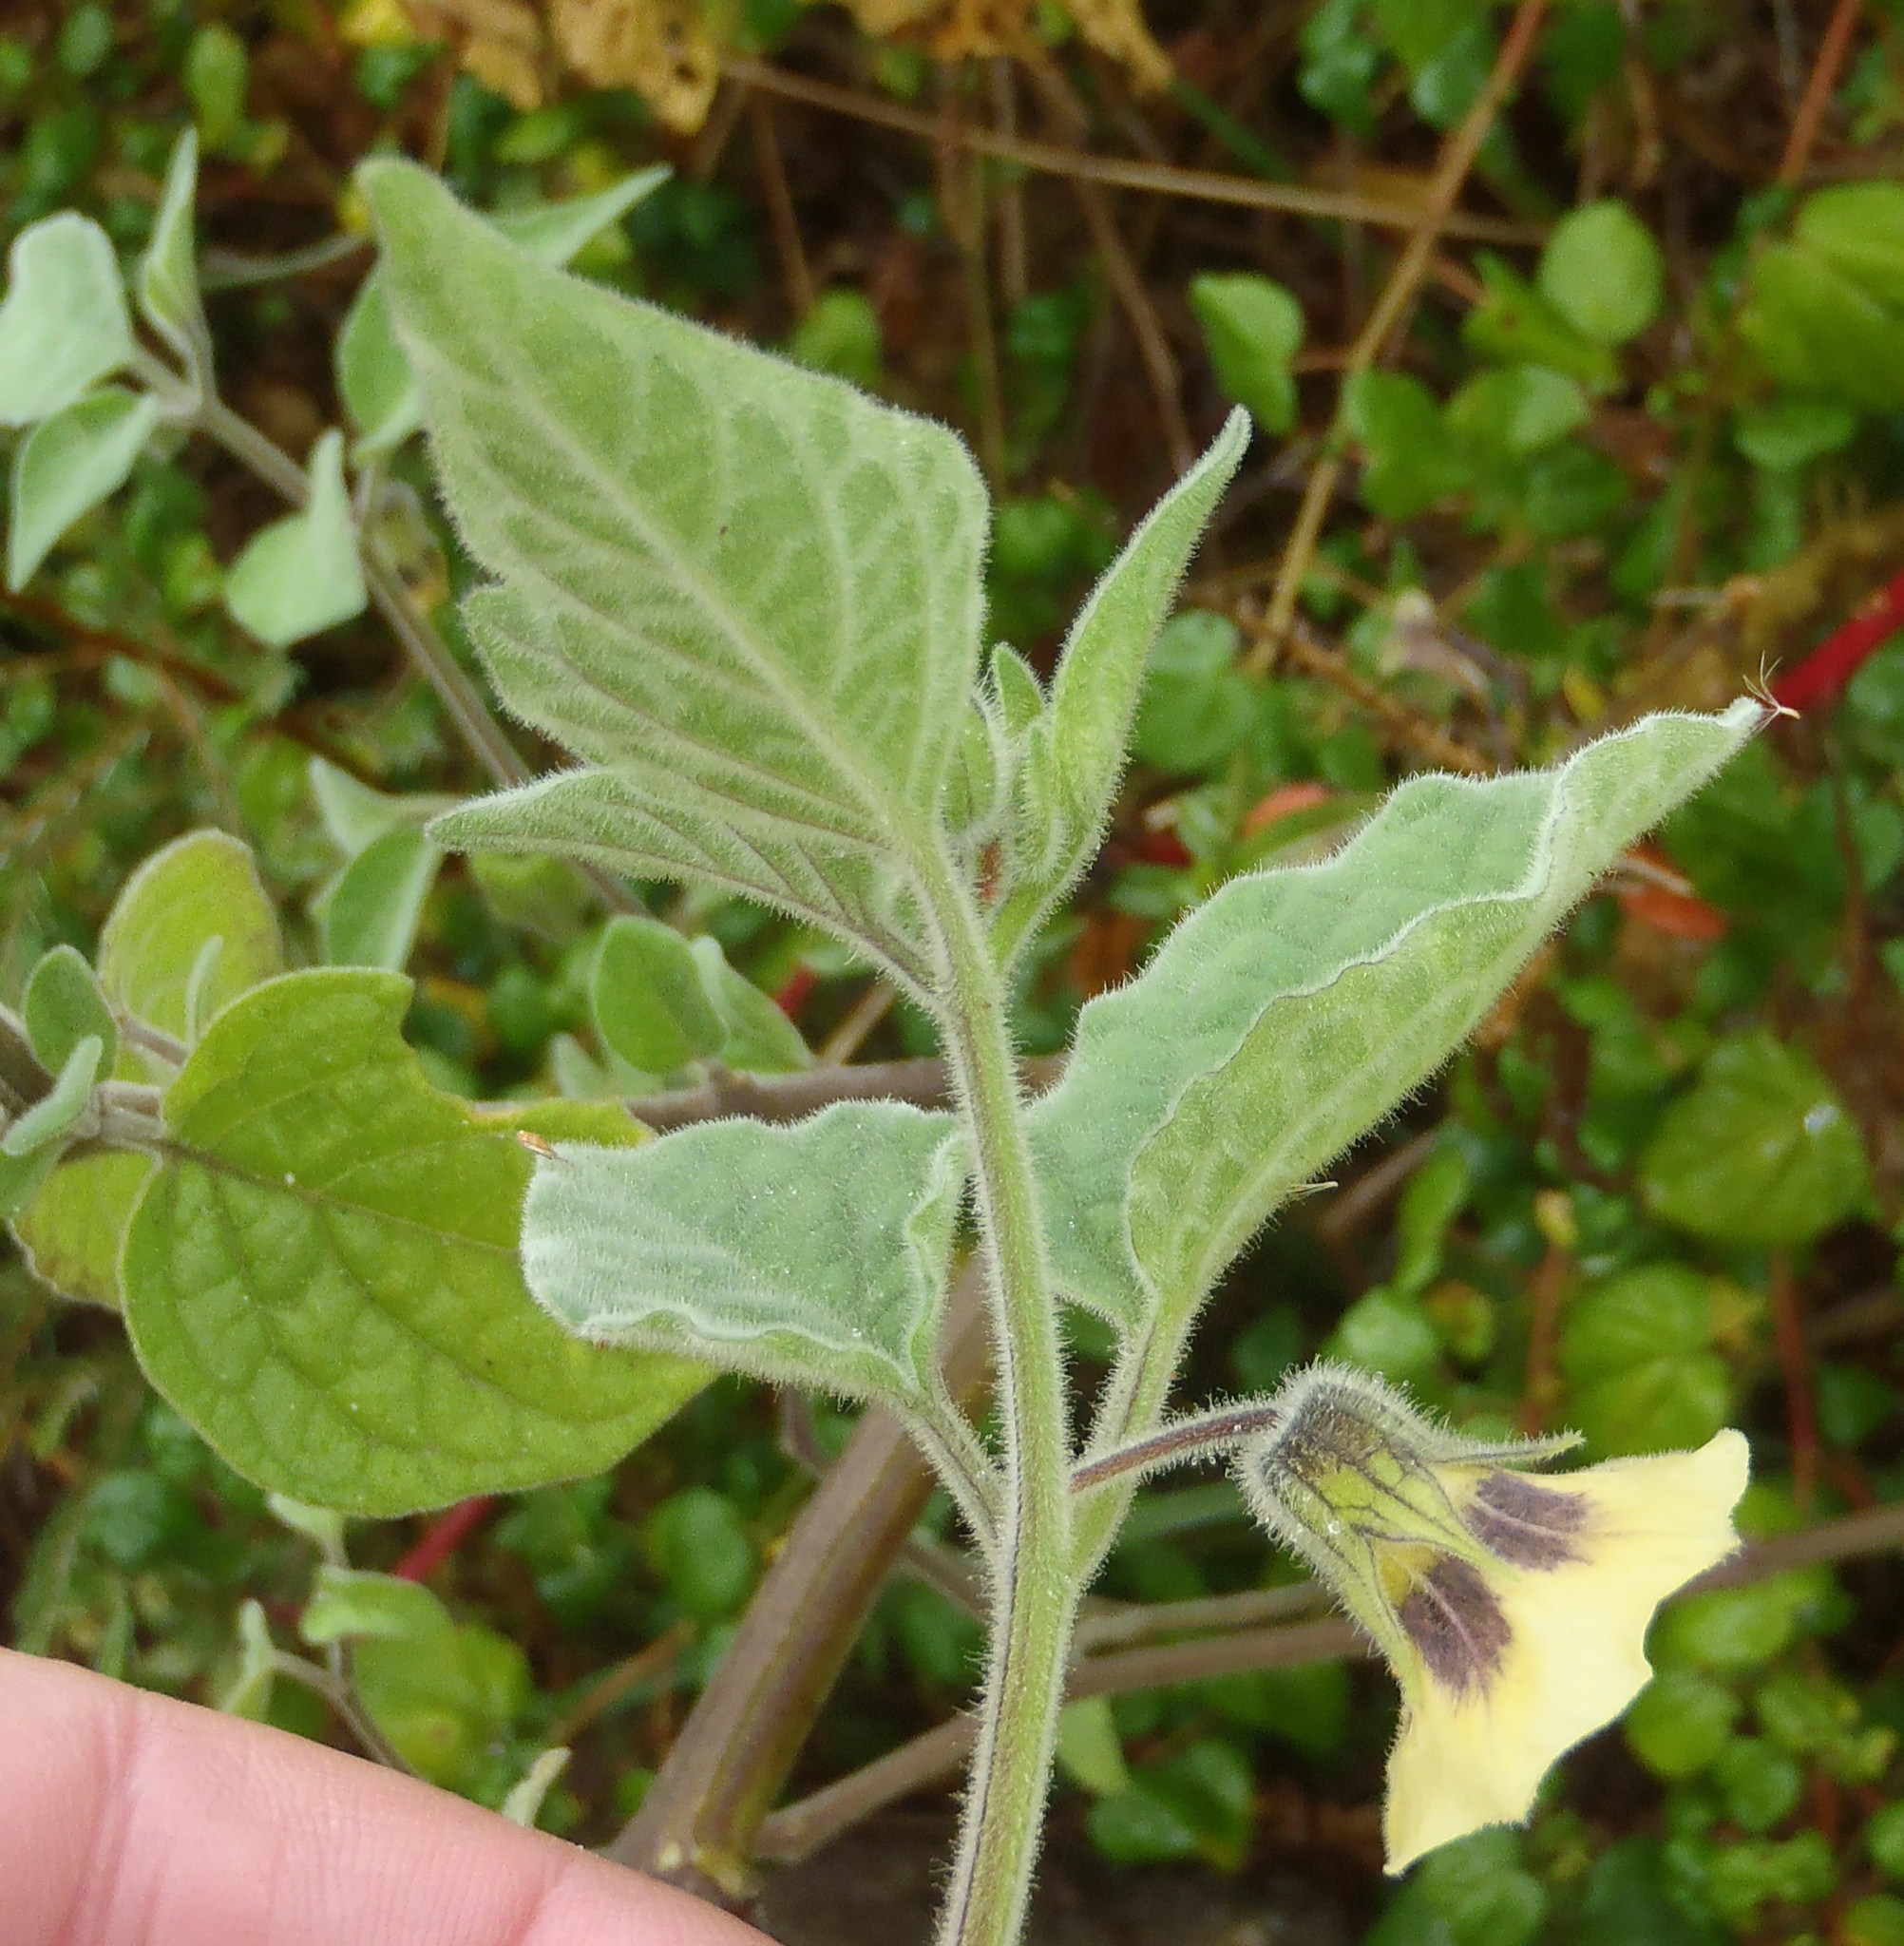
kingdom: Plantae
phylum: Tracheophyta
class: Magnoliopsida
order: Solanales
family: Solanaceae
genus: Physalis
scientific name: Physalis peruviana
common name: Cape-gooseberry
